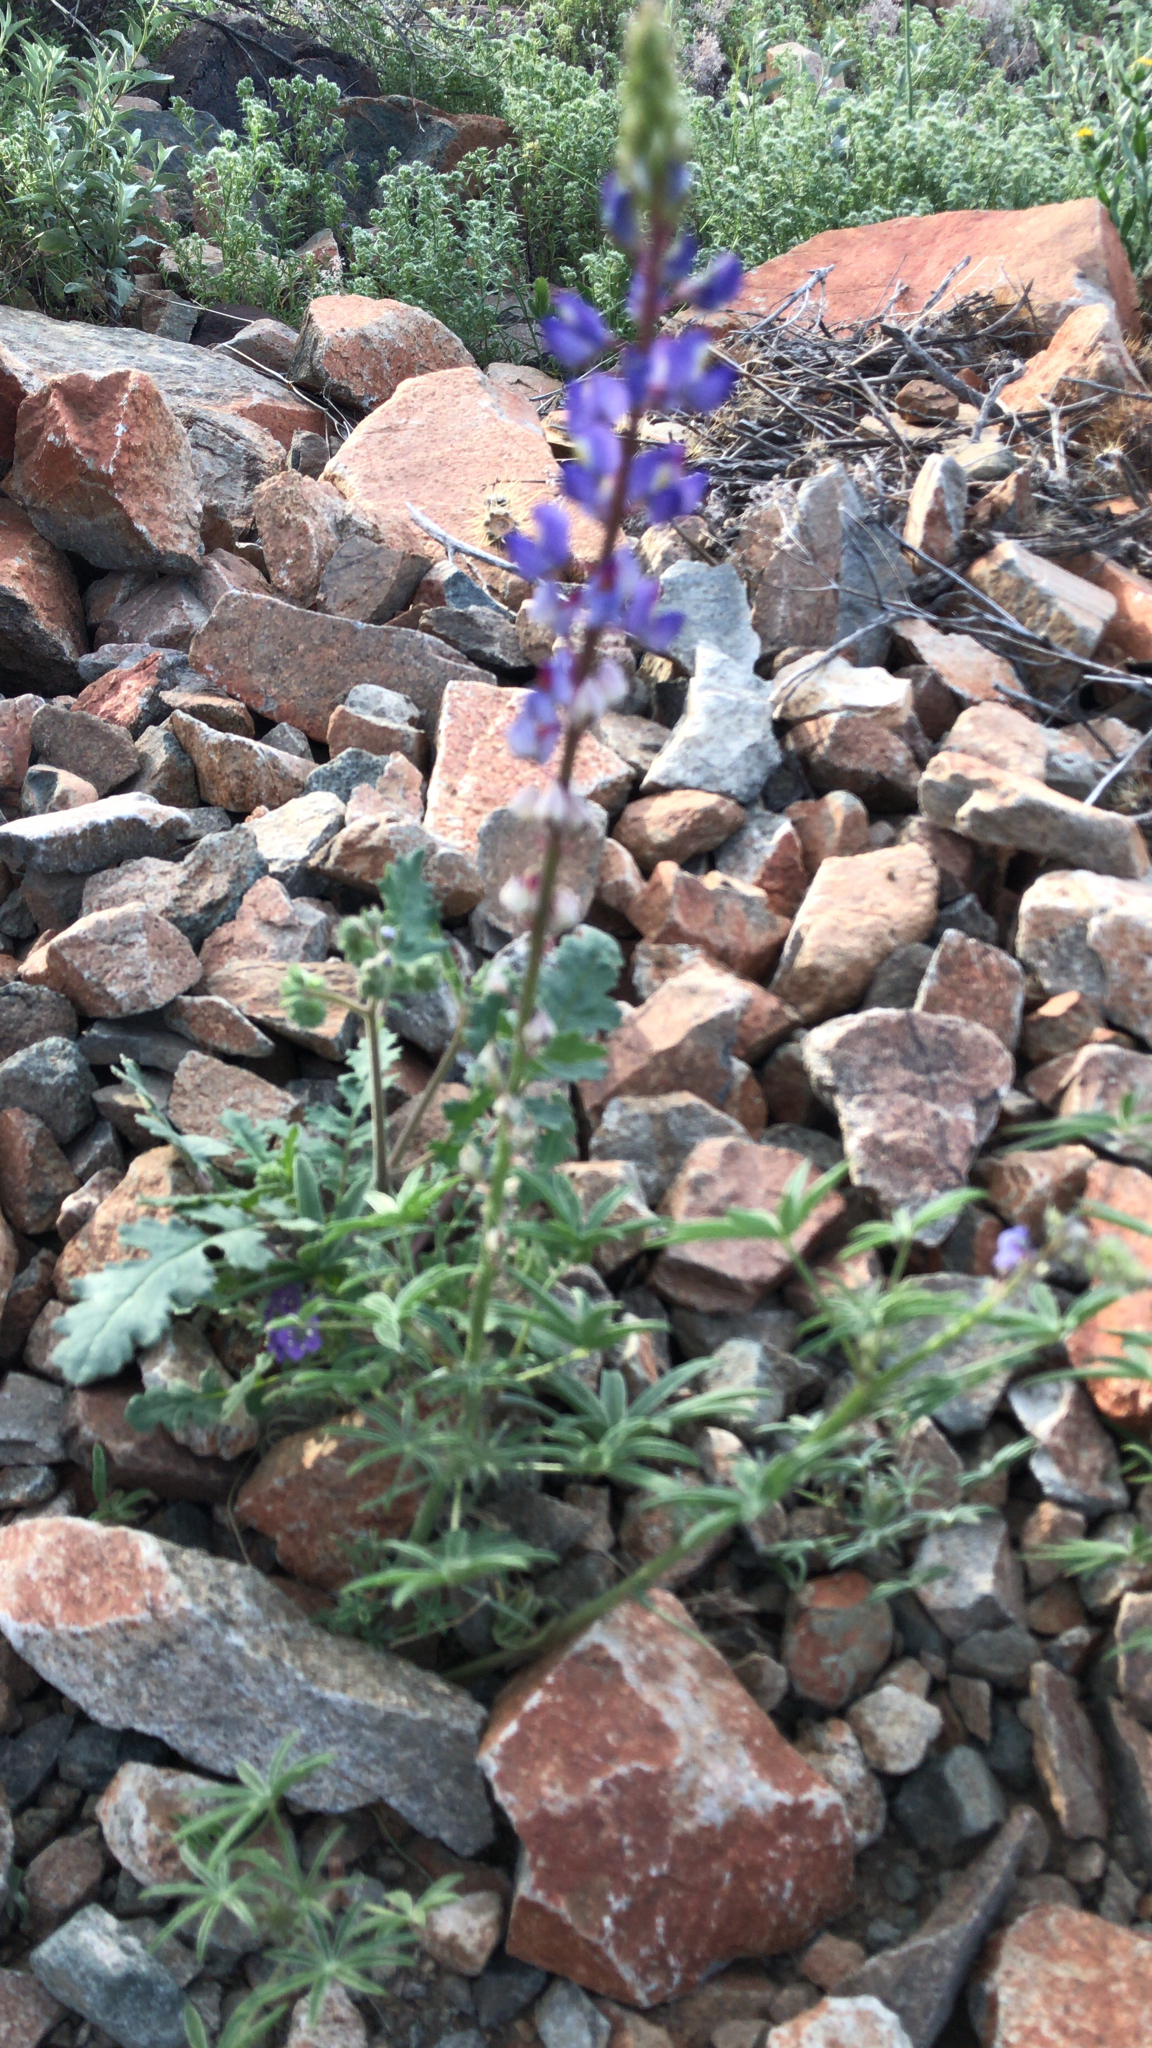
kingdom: Plantae
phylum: Tracheophyta
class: Magnoliopsida
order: Fabales
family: Fabaceae
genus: Lupinus
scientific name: Lupinus sparsiflorus
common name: Coulter's lupine
